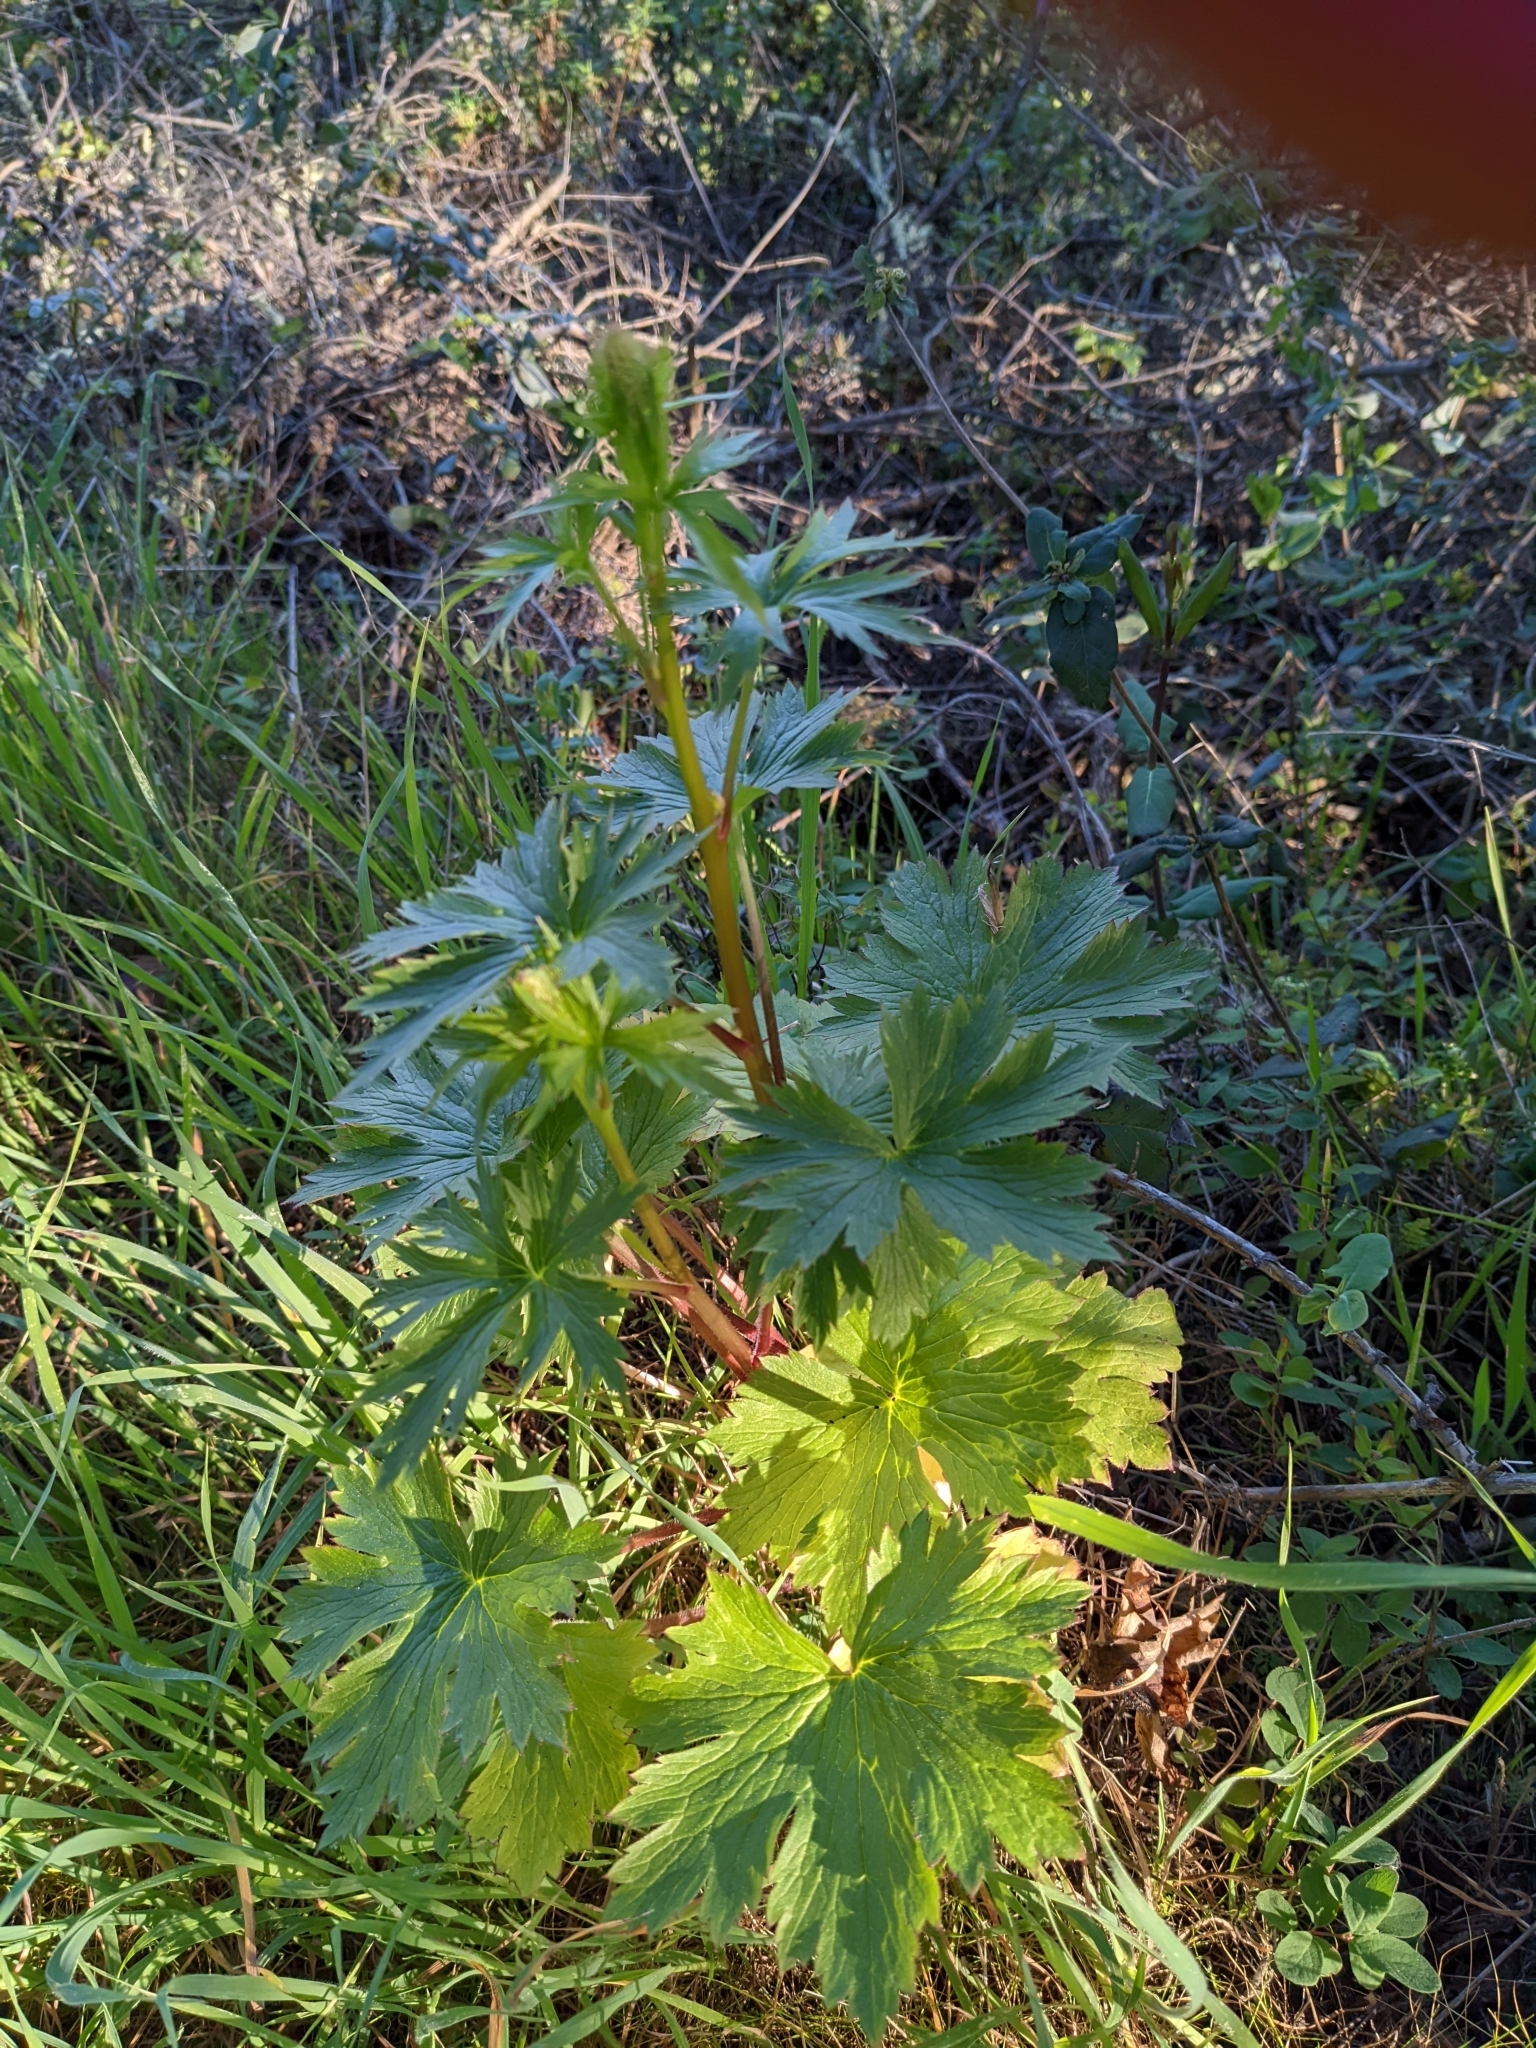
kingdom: Plantae
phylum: Tracheophyta
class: Magnoliopsida
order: Ranunculales
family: Ranunculaceae
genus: Delphinium
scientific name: Delphinium californicum
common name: California larkspur
